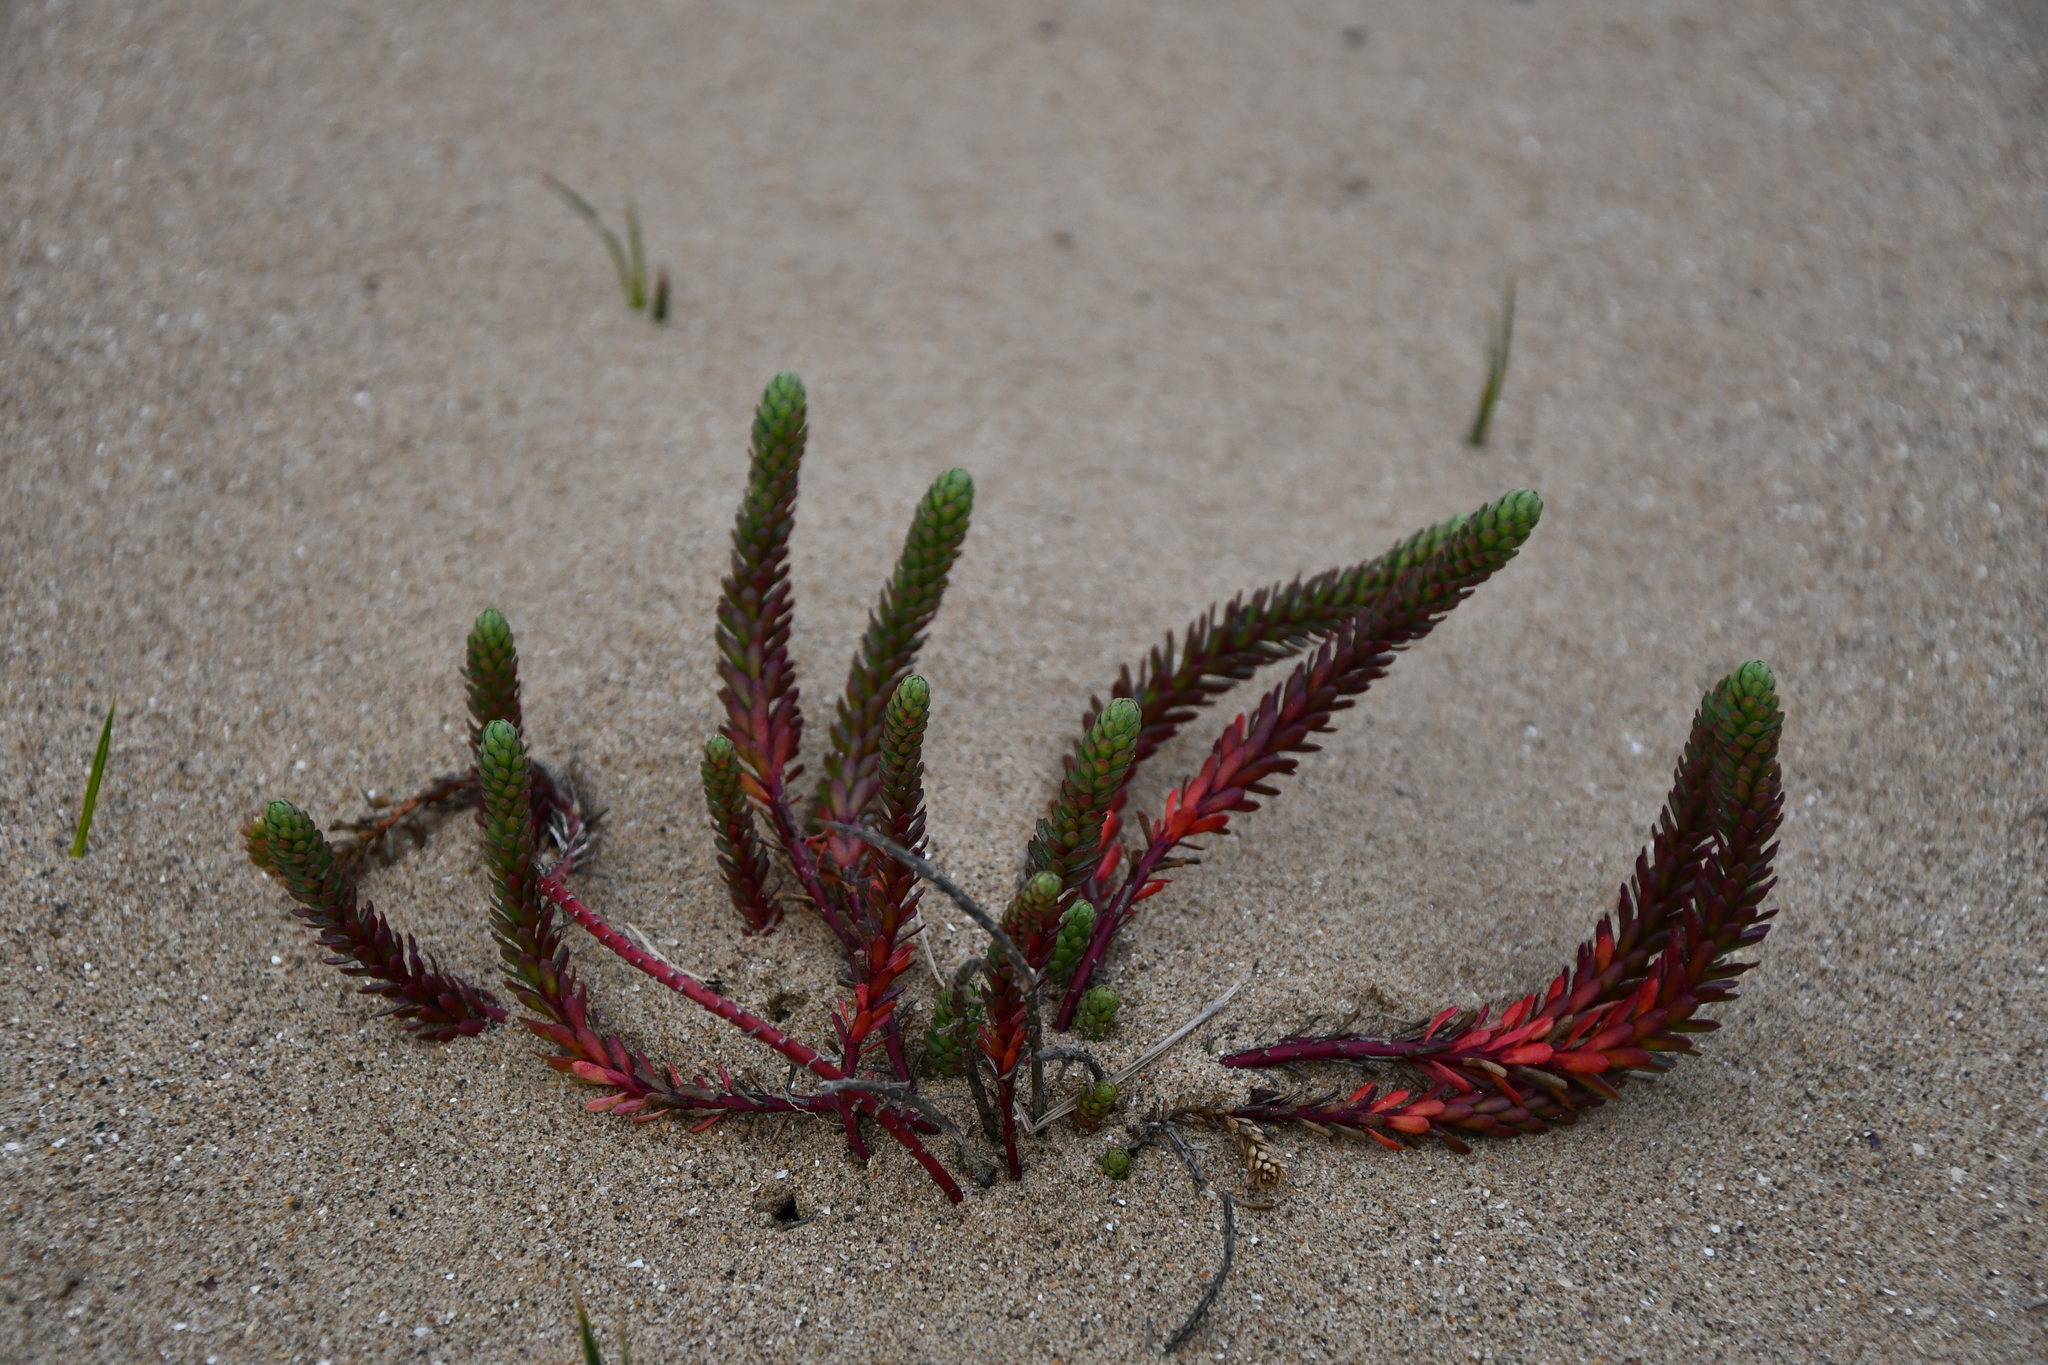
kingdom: Plantae
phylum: Tracheophyta
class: Magnoliopsida
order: Malpighiales
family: Euphorbiaceae
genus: Euphorbia
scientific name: Euphorbia paralias
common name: Sea spurge
